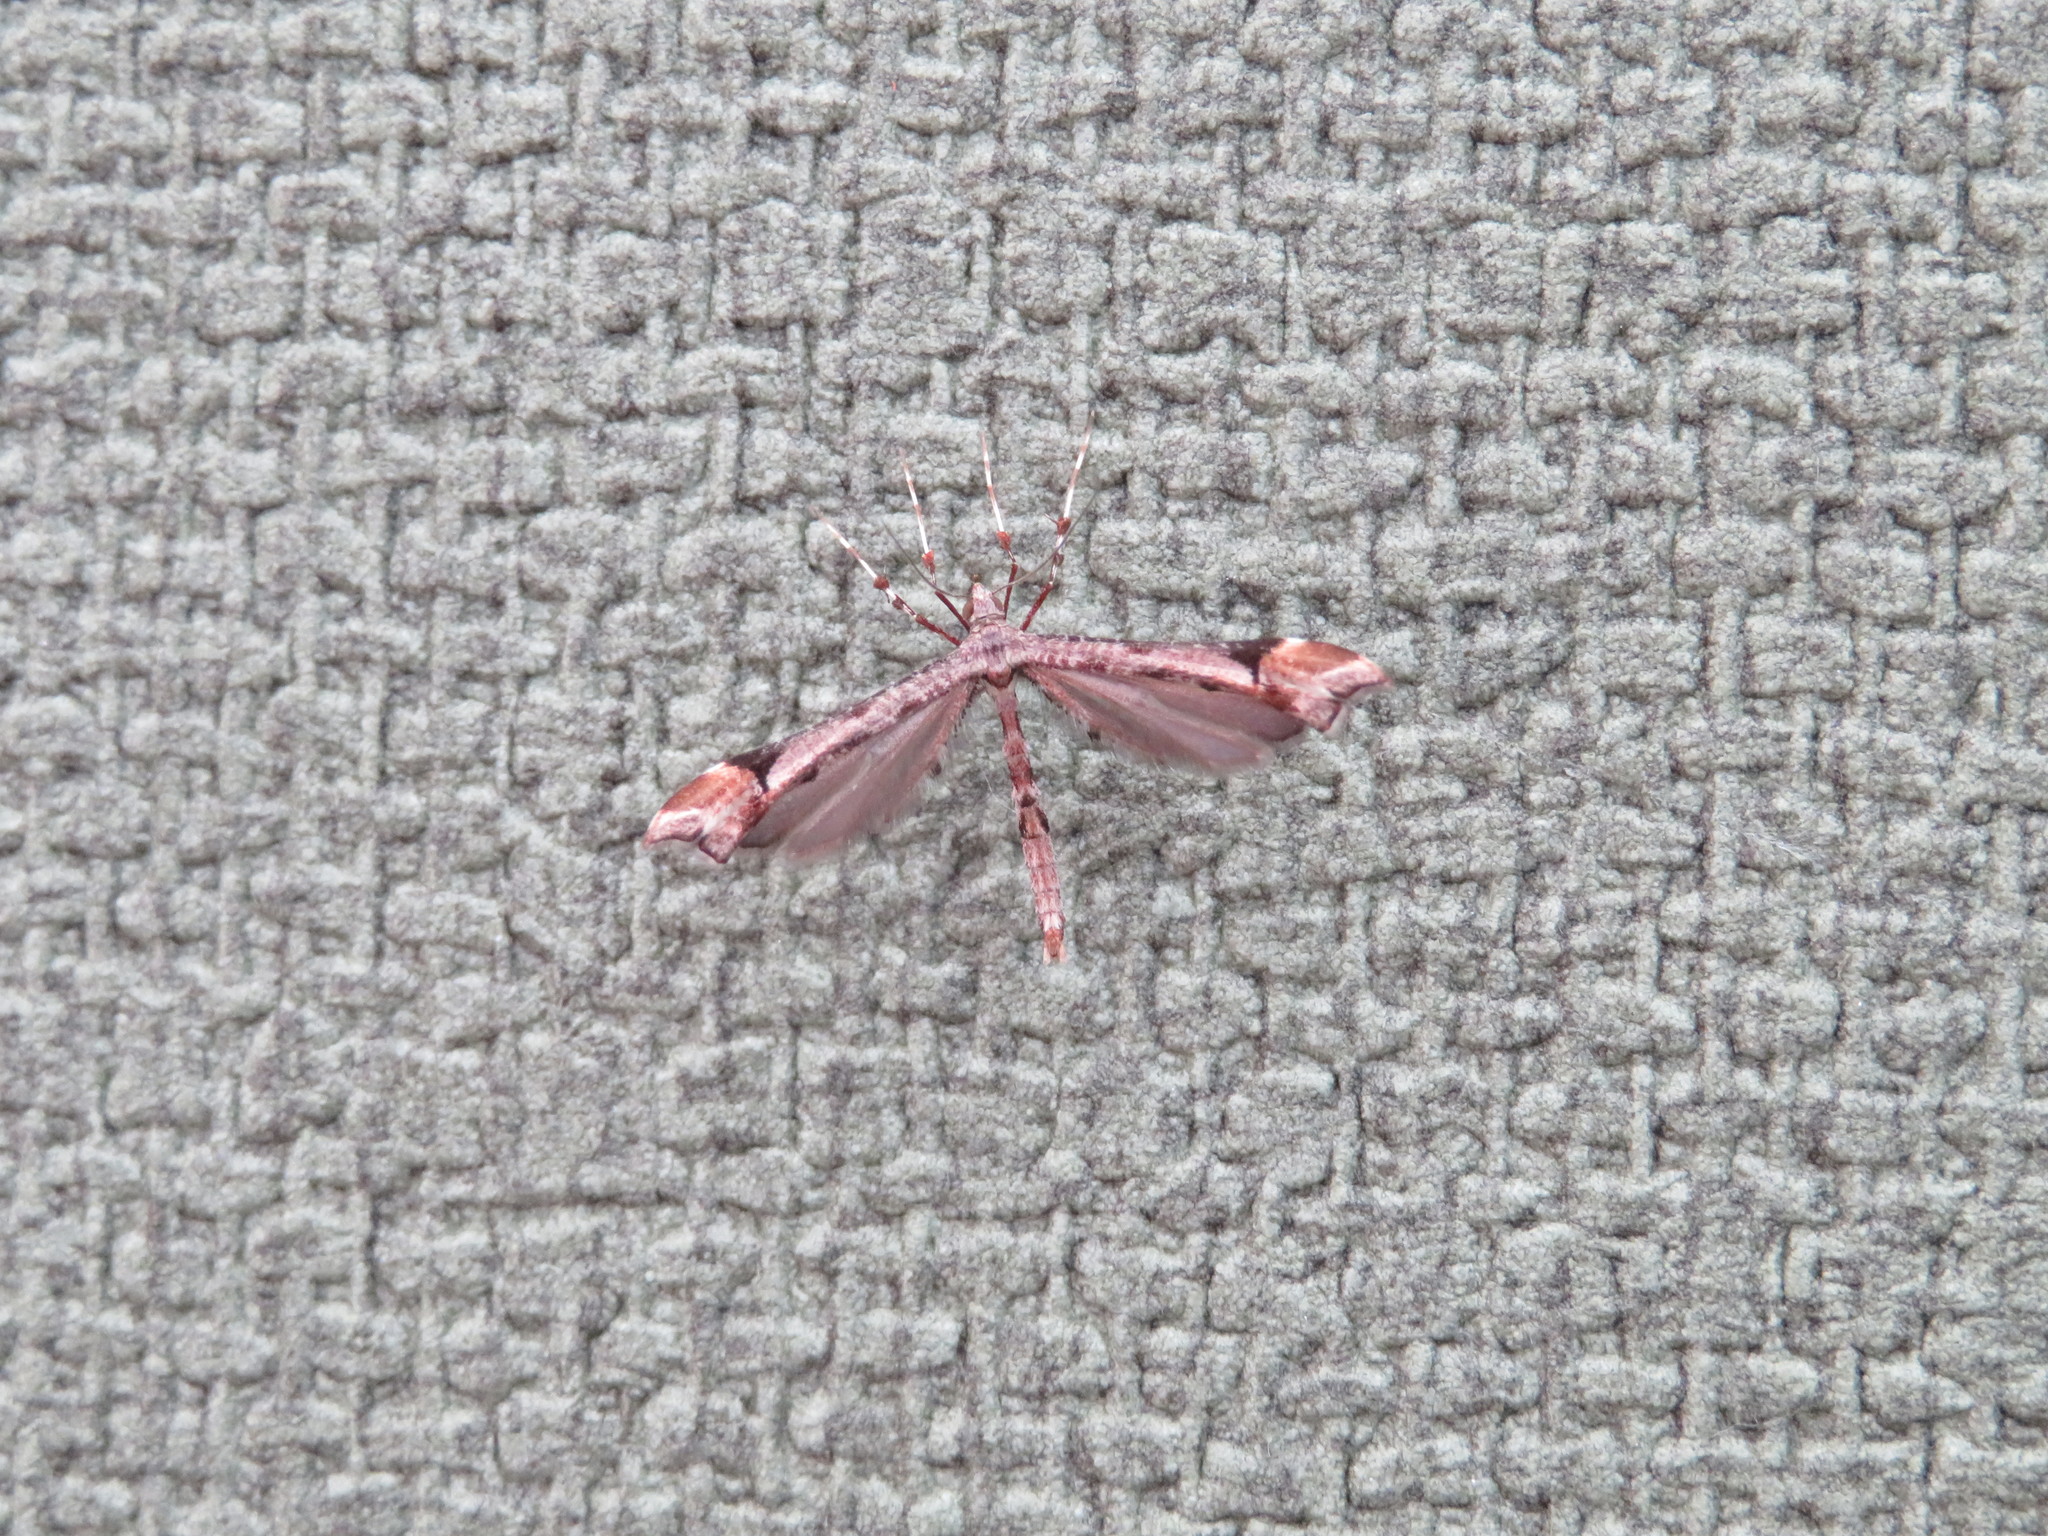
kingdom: Animalia
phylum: Arthropoda
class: Insecta
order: Lepidoptera
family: Pterophoridae
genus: Amblyptilia
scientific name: Amblyptilia falcatalis
